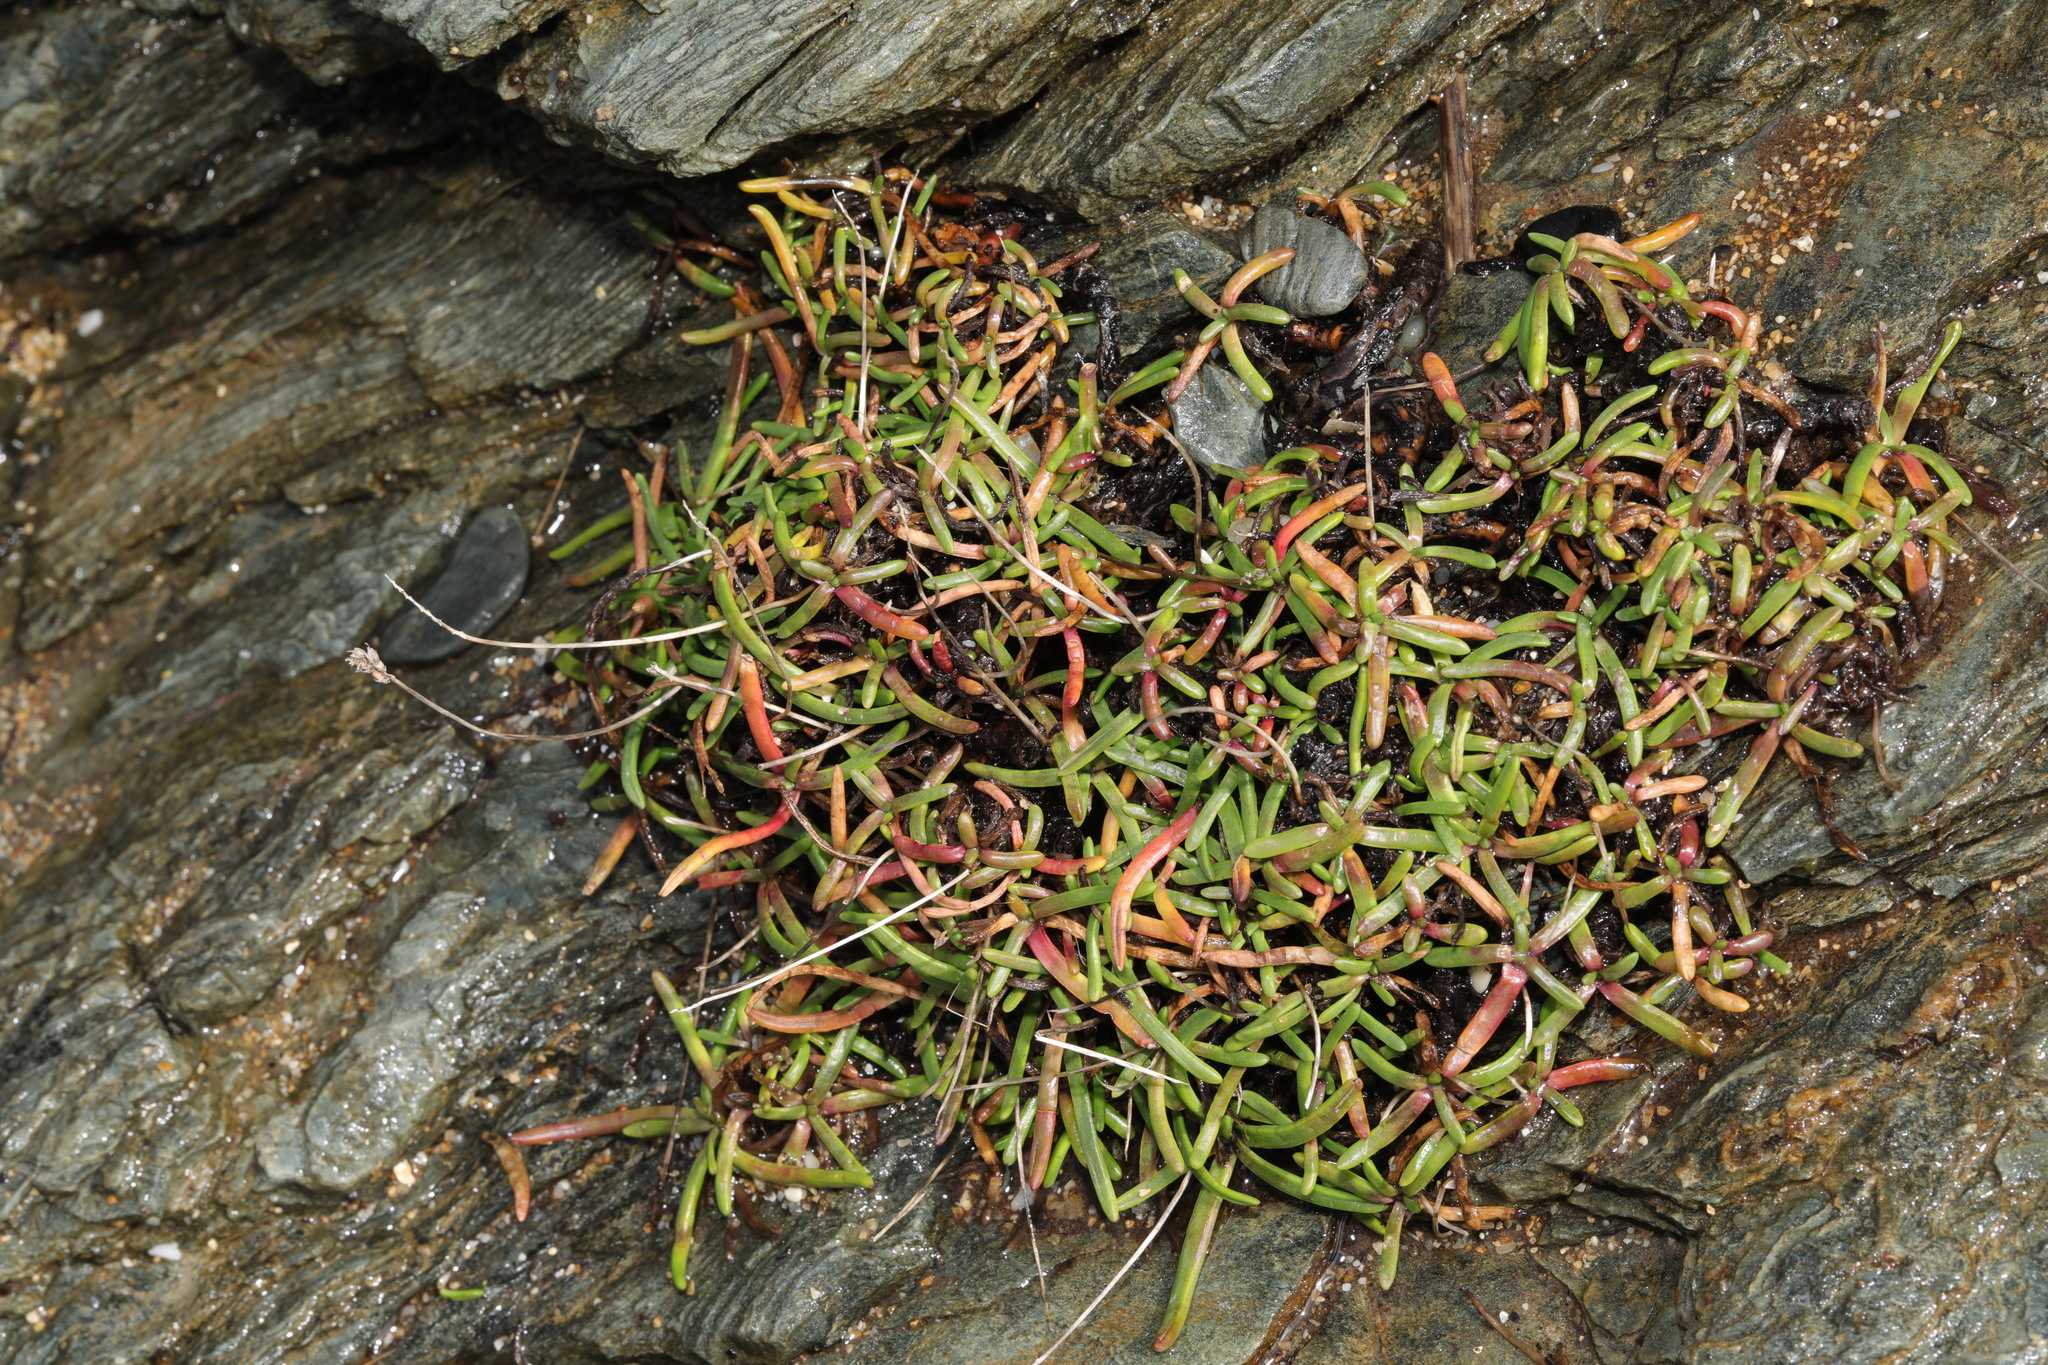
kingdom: Plantae
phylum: Tracheophyta
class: Magnoliopsida
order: Caryophyllales
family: Plumbaginaceae
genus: Armeria
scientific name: Armeria maritima
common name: Thrift
